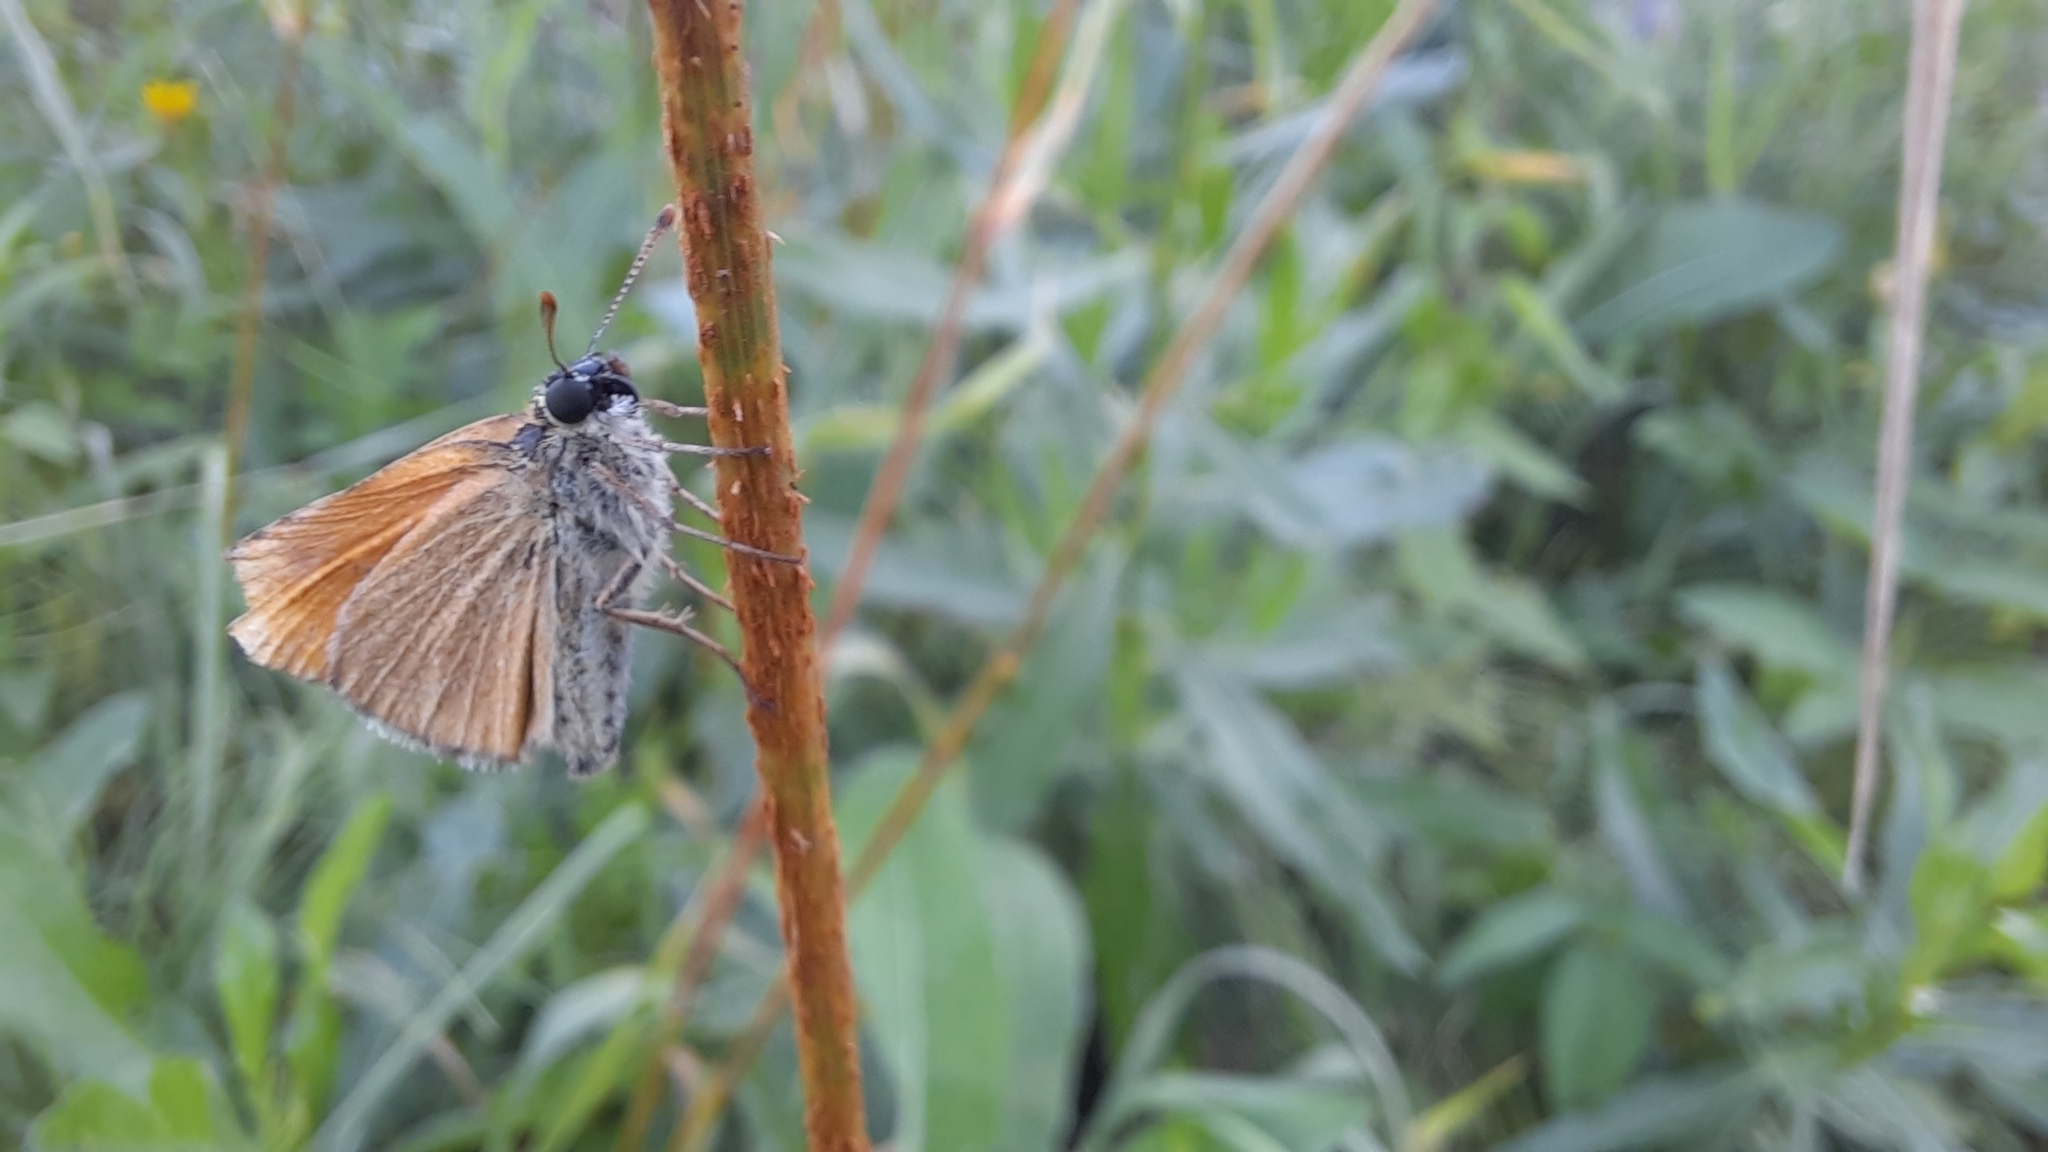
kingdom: Animalia
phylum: Arthropoda
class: Insecta
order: Lepidoptera
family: Hesperiidae
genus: Thymelicus
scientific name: Thymelicus sylvestris
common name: Small skipper
